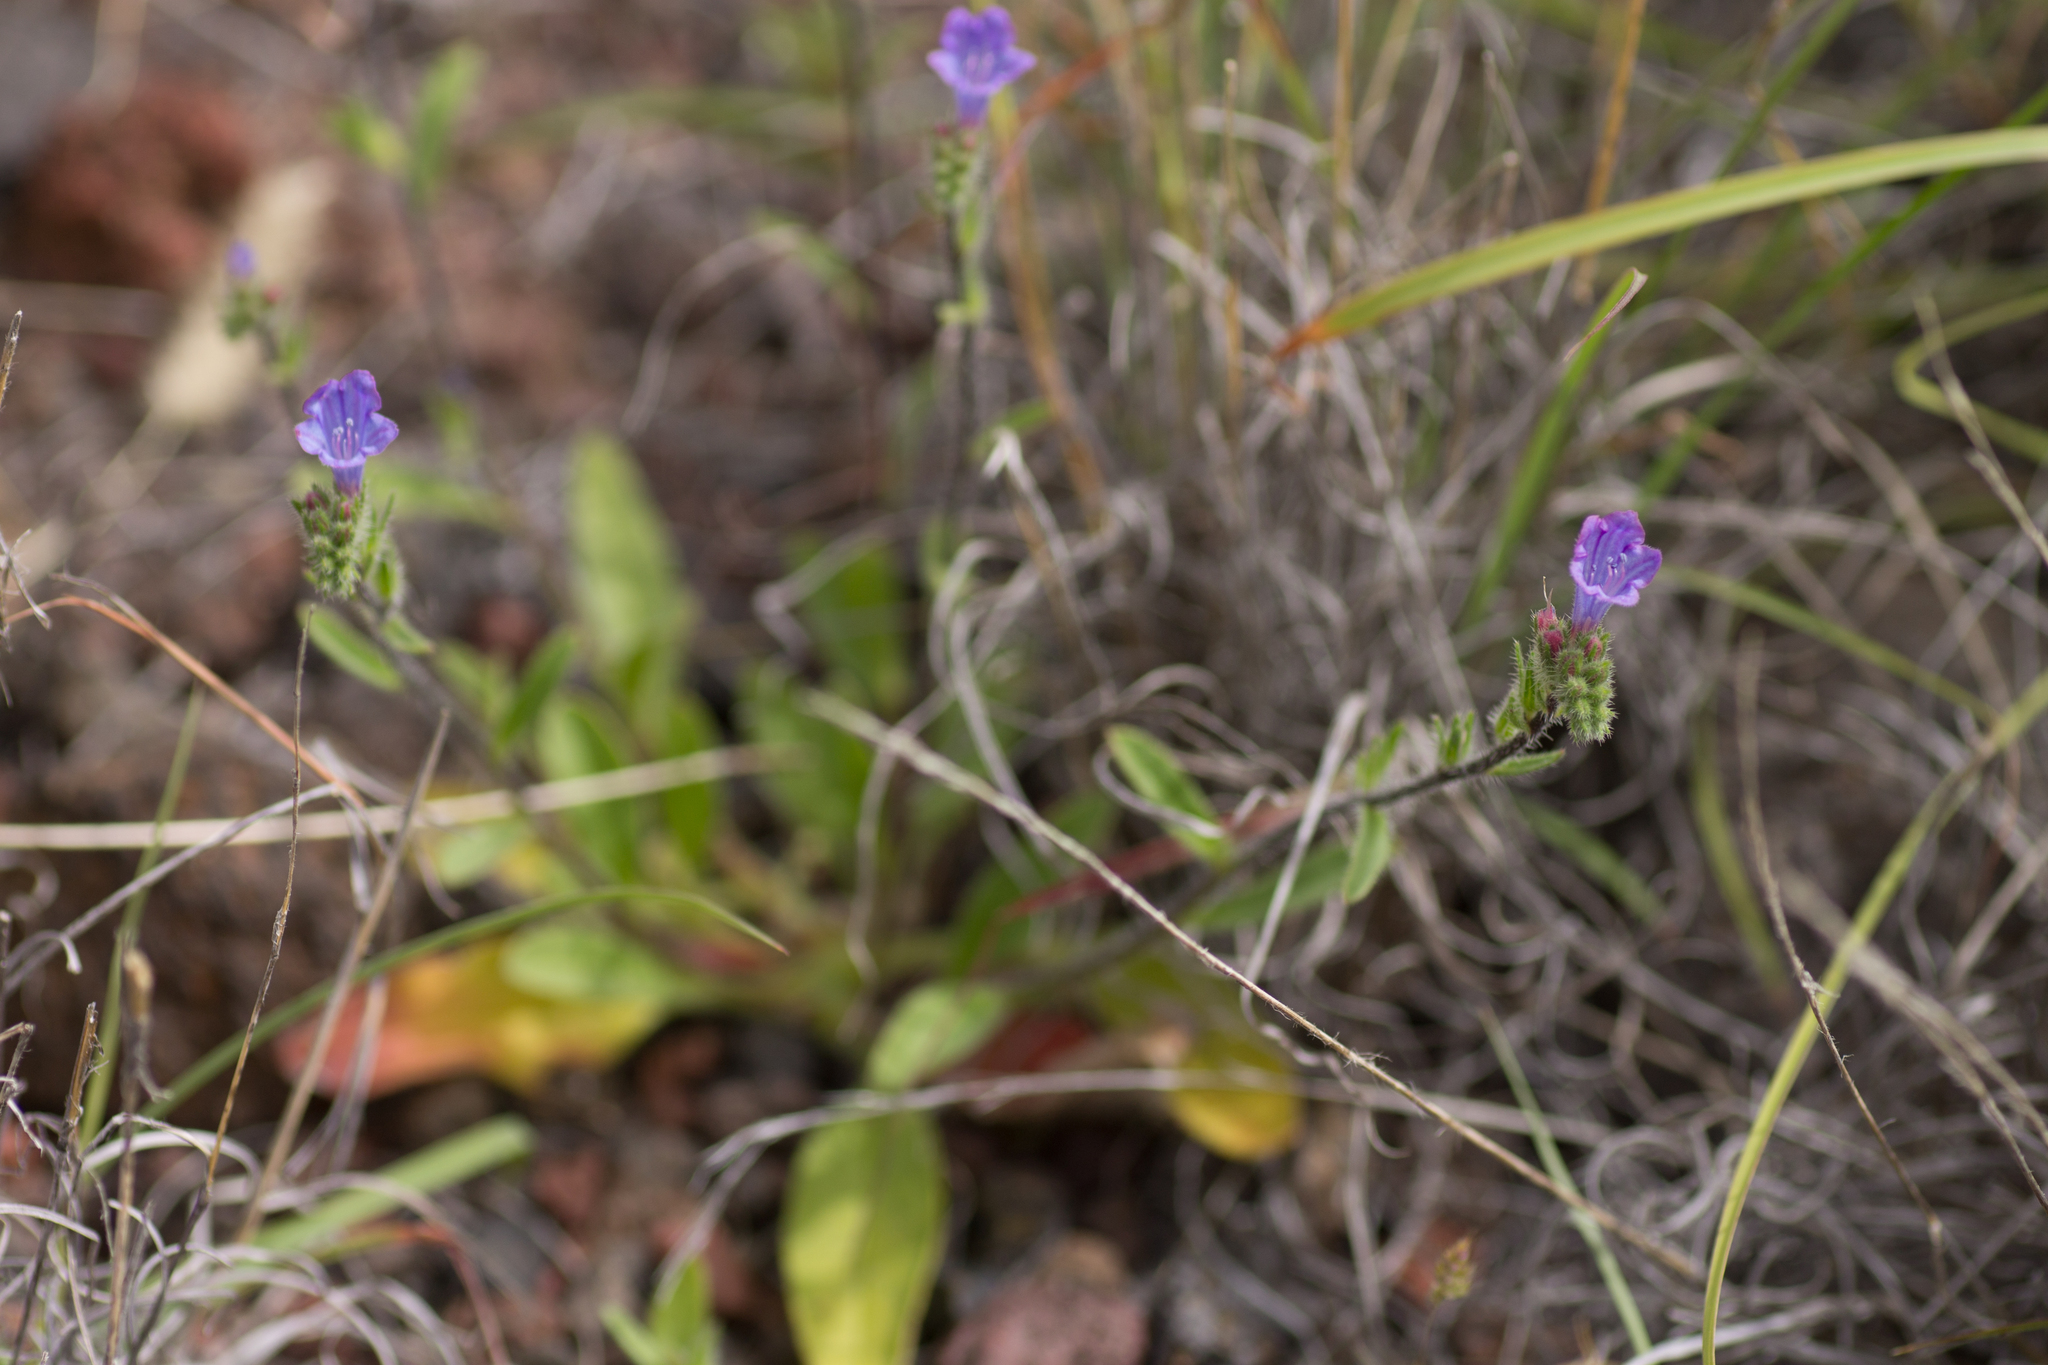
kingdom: Plantae
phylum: Tracheophyta
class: Magnoliopsida
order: Boraginales
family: Boraginaceae
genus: Echium
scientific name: Echium bonnetii
